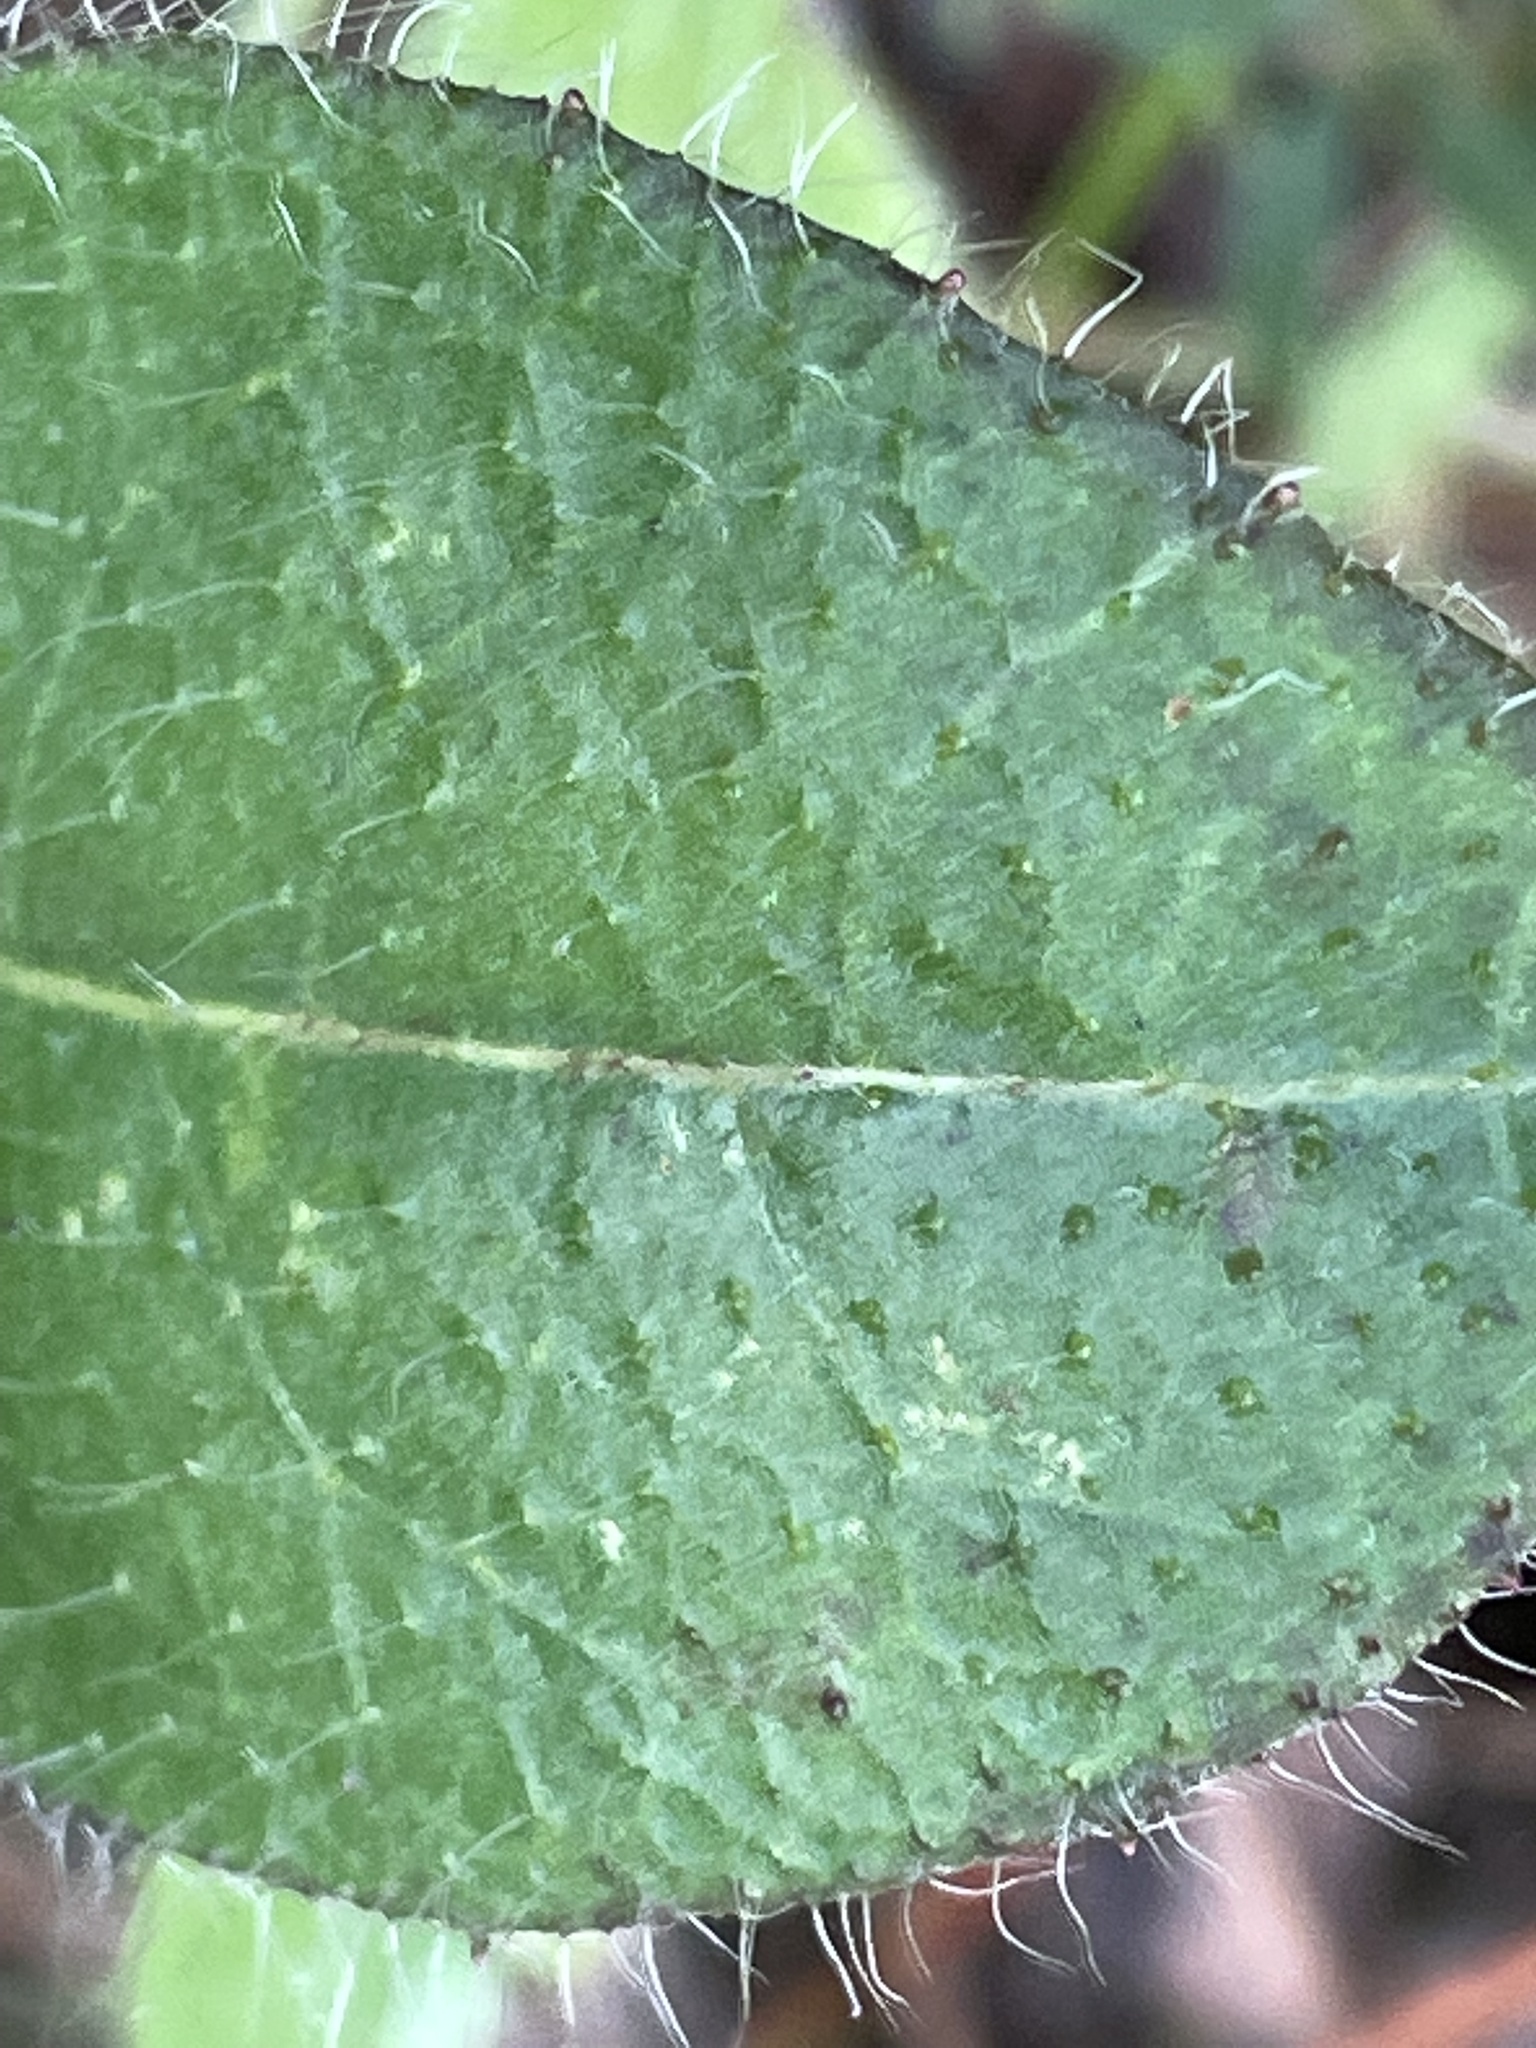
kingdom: Plantae
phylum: Tracheophyta
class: Magnoliopsida
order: Asterales
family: Asteraceae
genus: Hieracium
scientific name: Hieracium gronovii
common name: Beaked hawkweed
